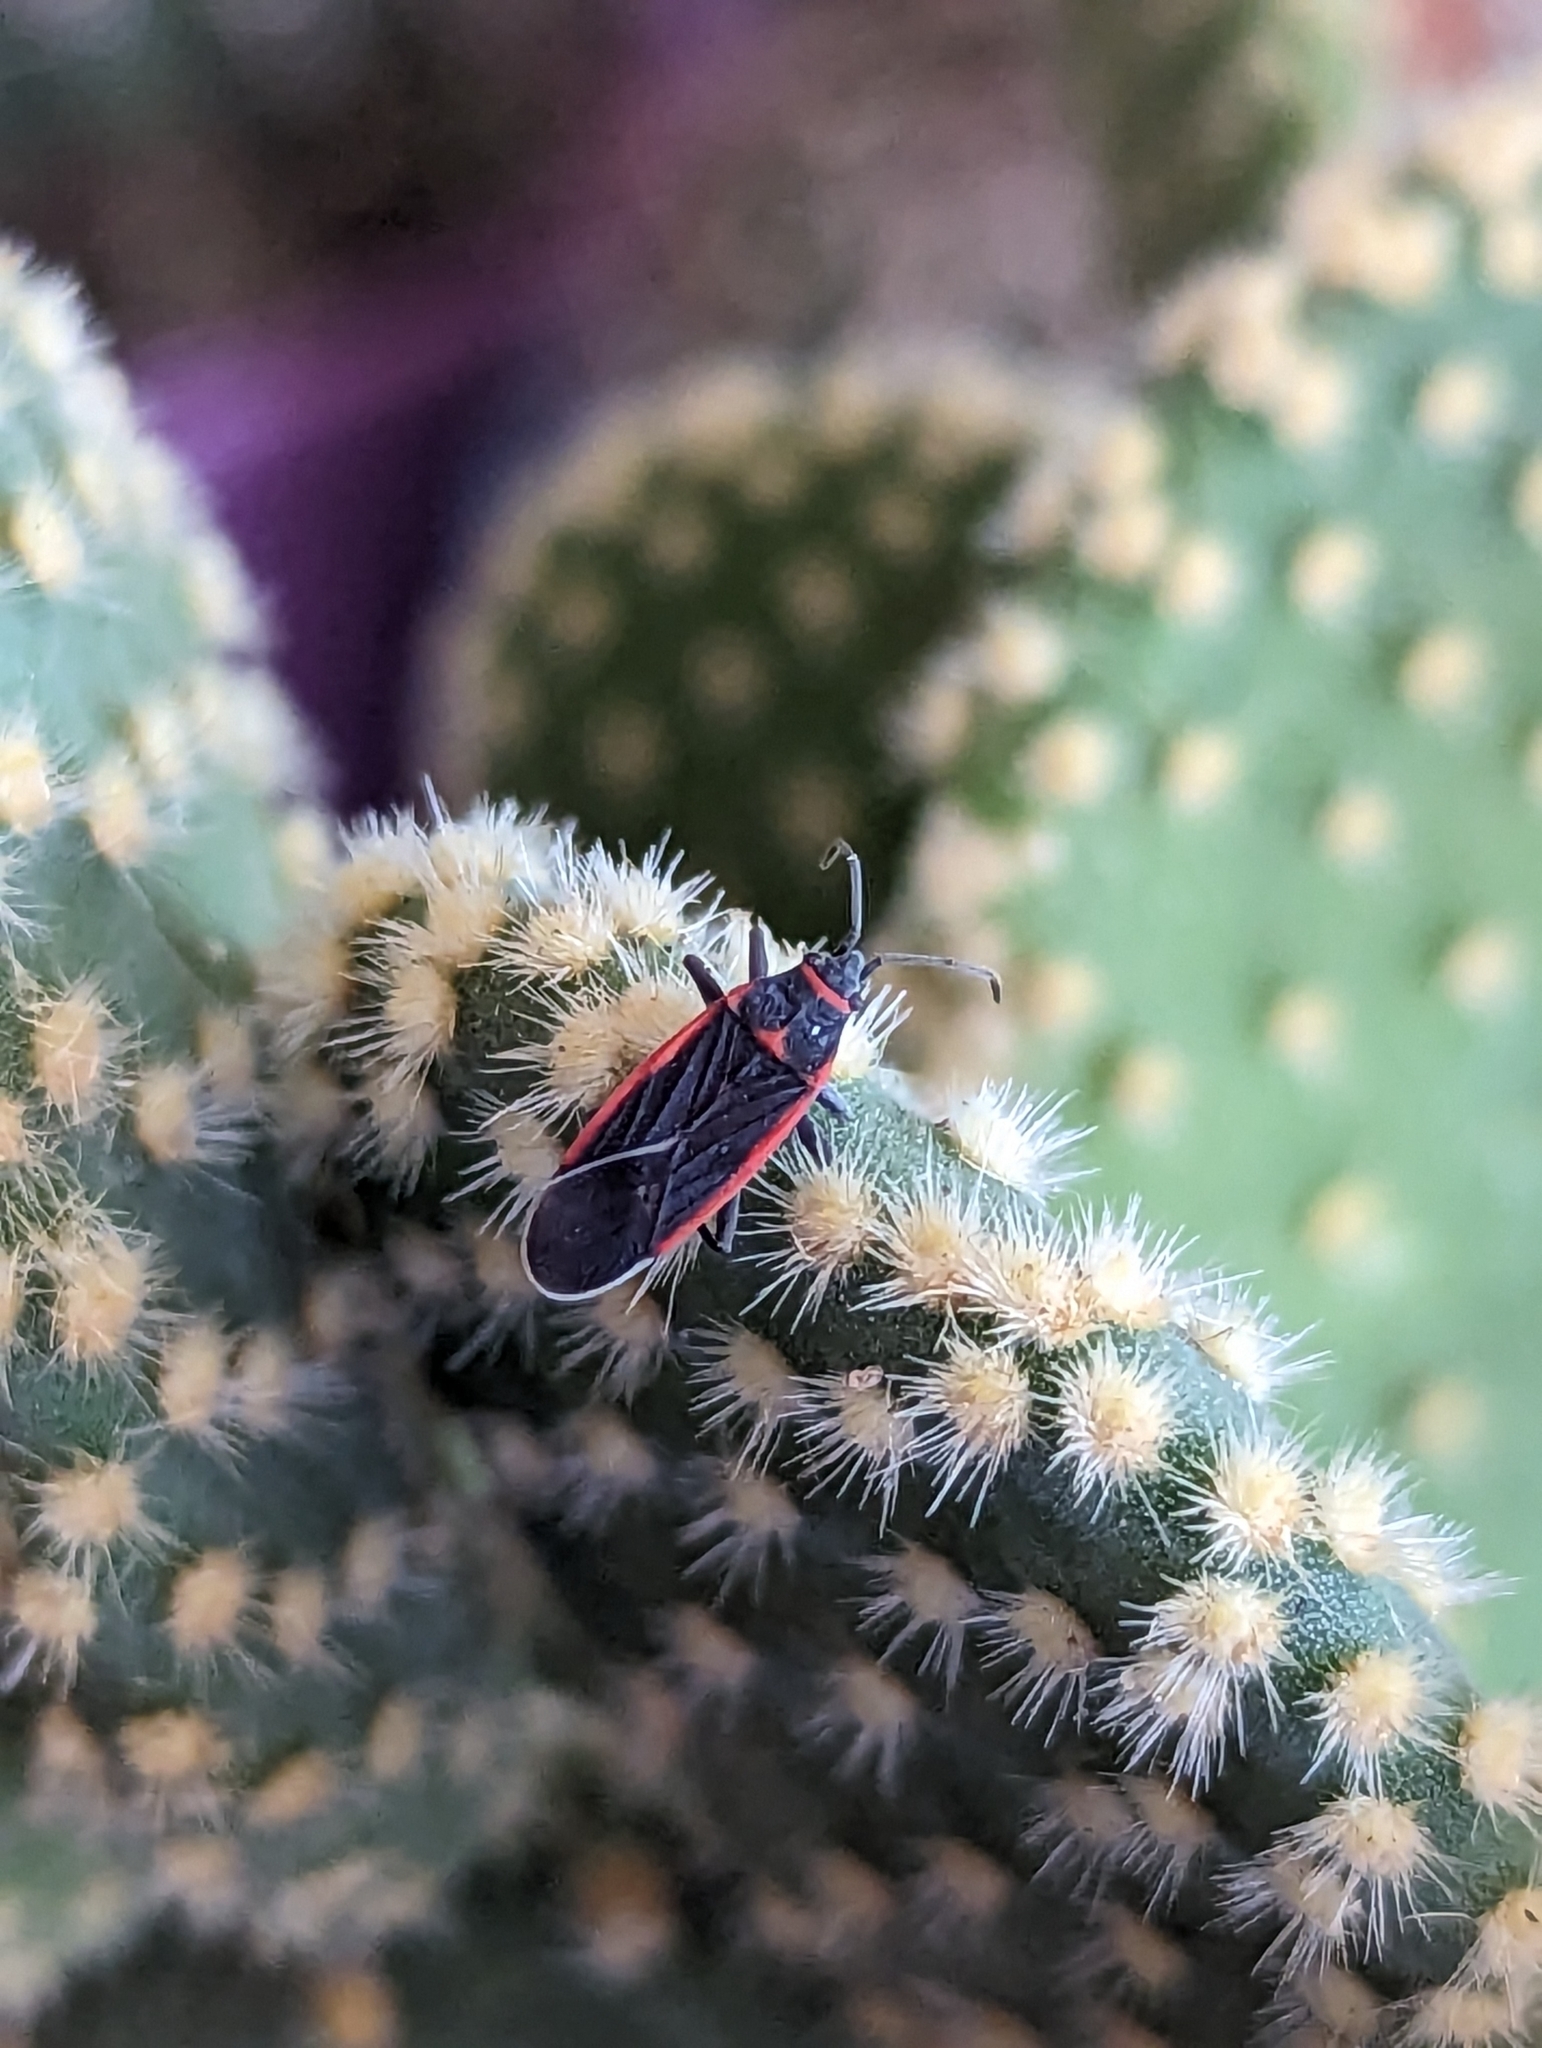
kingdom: Animalia
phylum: Arthropoda
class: Insecta
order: Hemiptera
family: Lygaeidae
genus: Melacoryphus
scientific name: Melacoryphus lateralis
